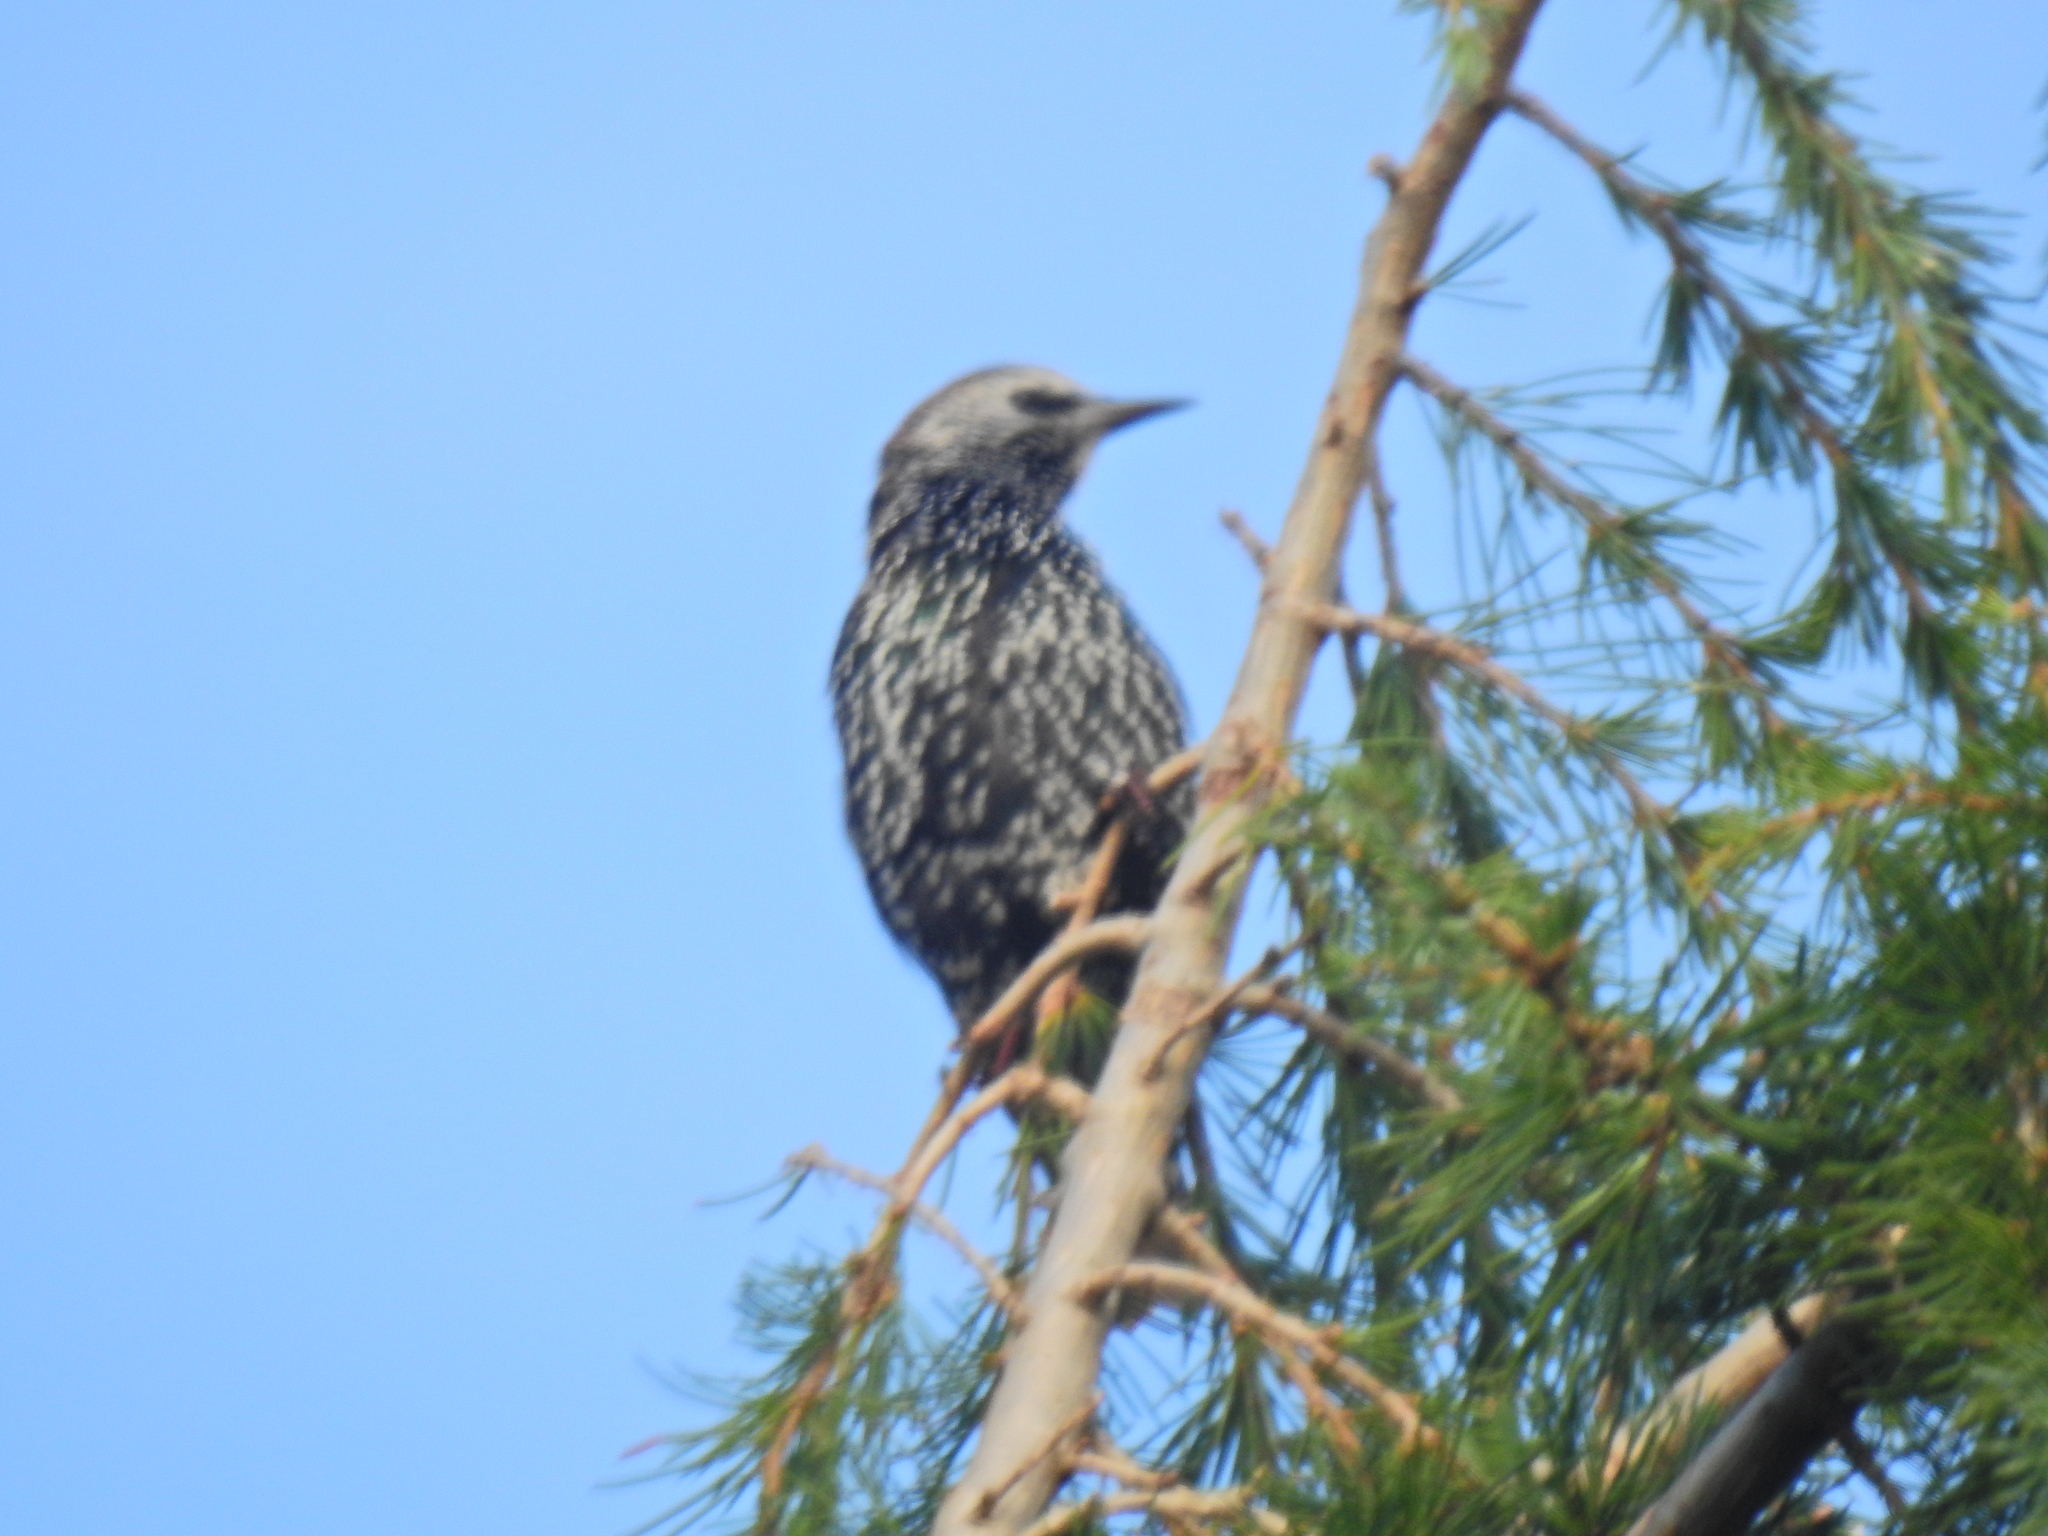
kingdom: Animalia
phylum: Chordata
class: Aves
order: Passeriformes
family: Sturnidae
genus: Sturnus
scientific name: Sturnus vulgaris
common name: Common starling
